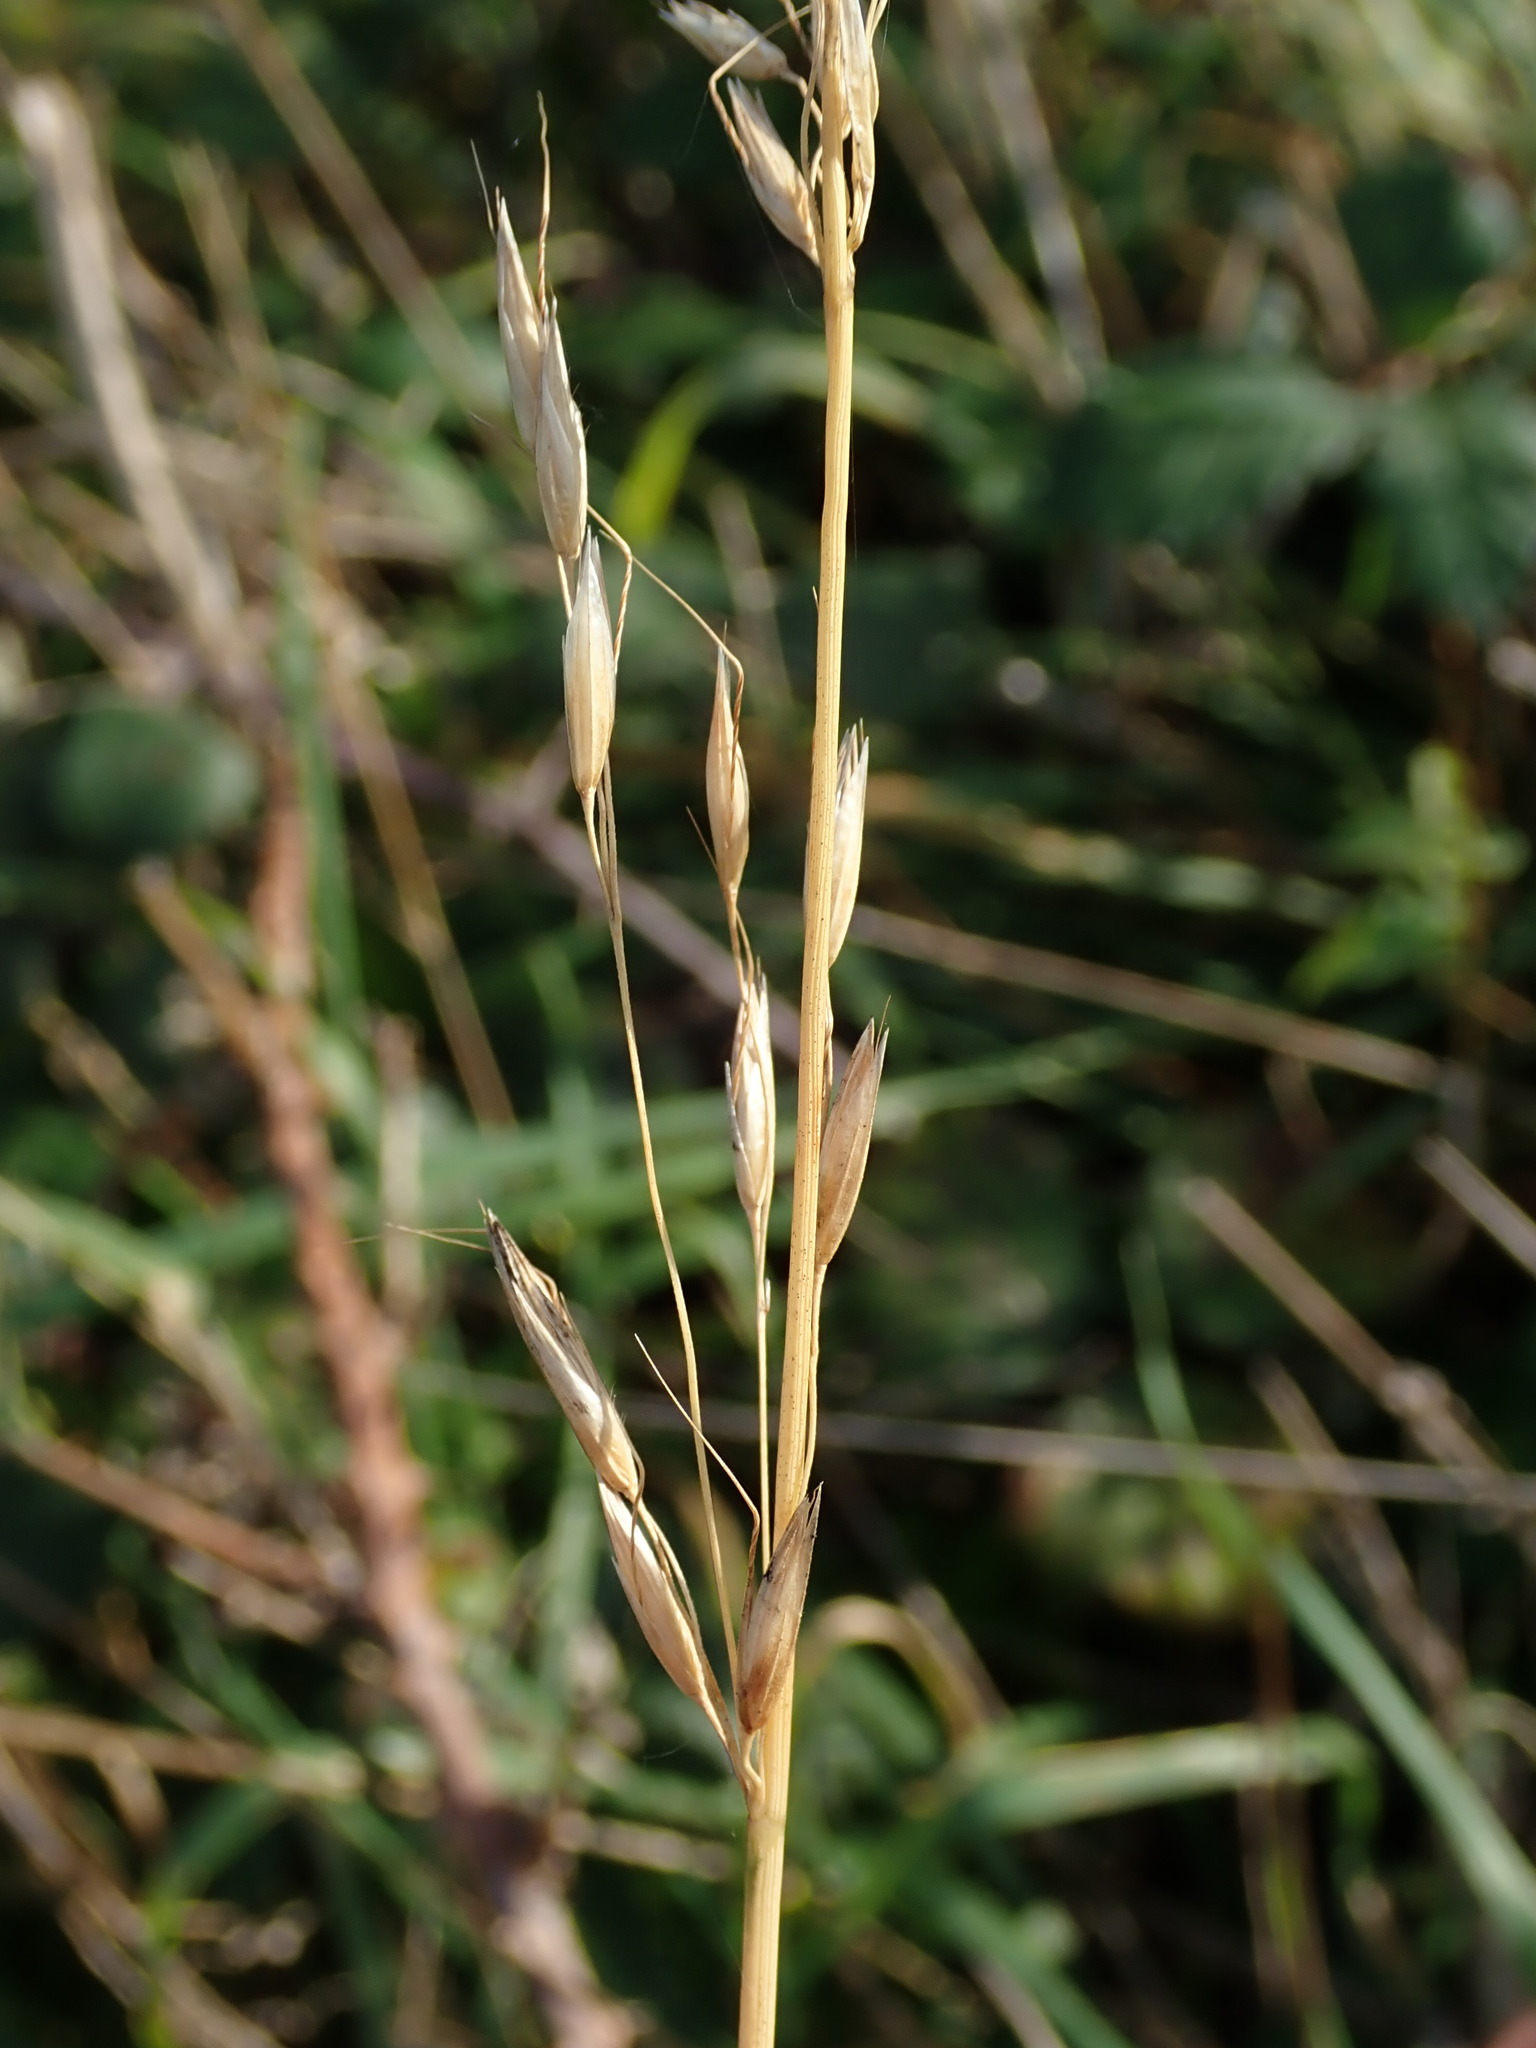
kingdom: Plantae
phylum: Tracheophyta
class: Liliopsida
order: Poales
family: Poaceae
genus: Arrhenatherum
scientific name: Arrhenatherum elatius
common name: Tall oatgrass
